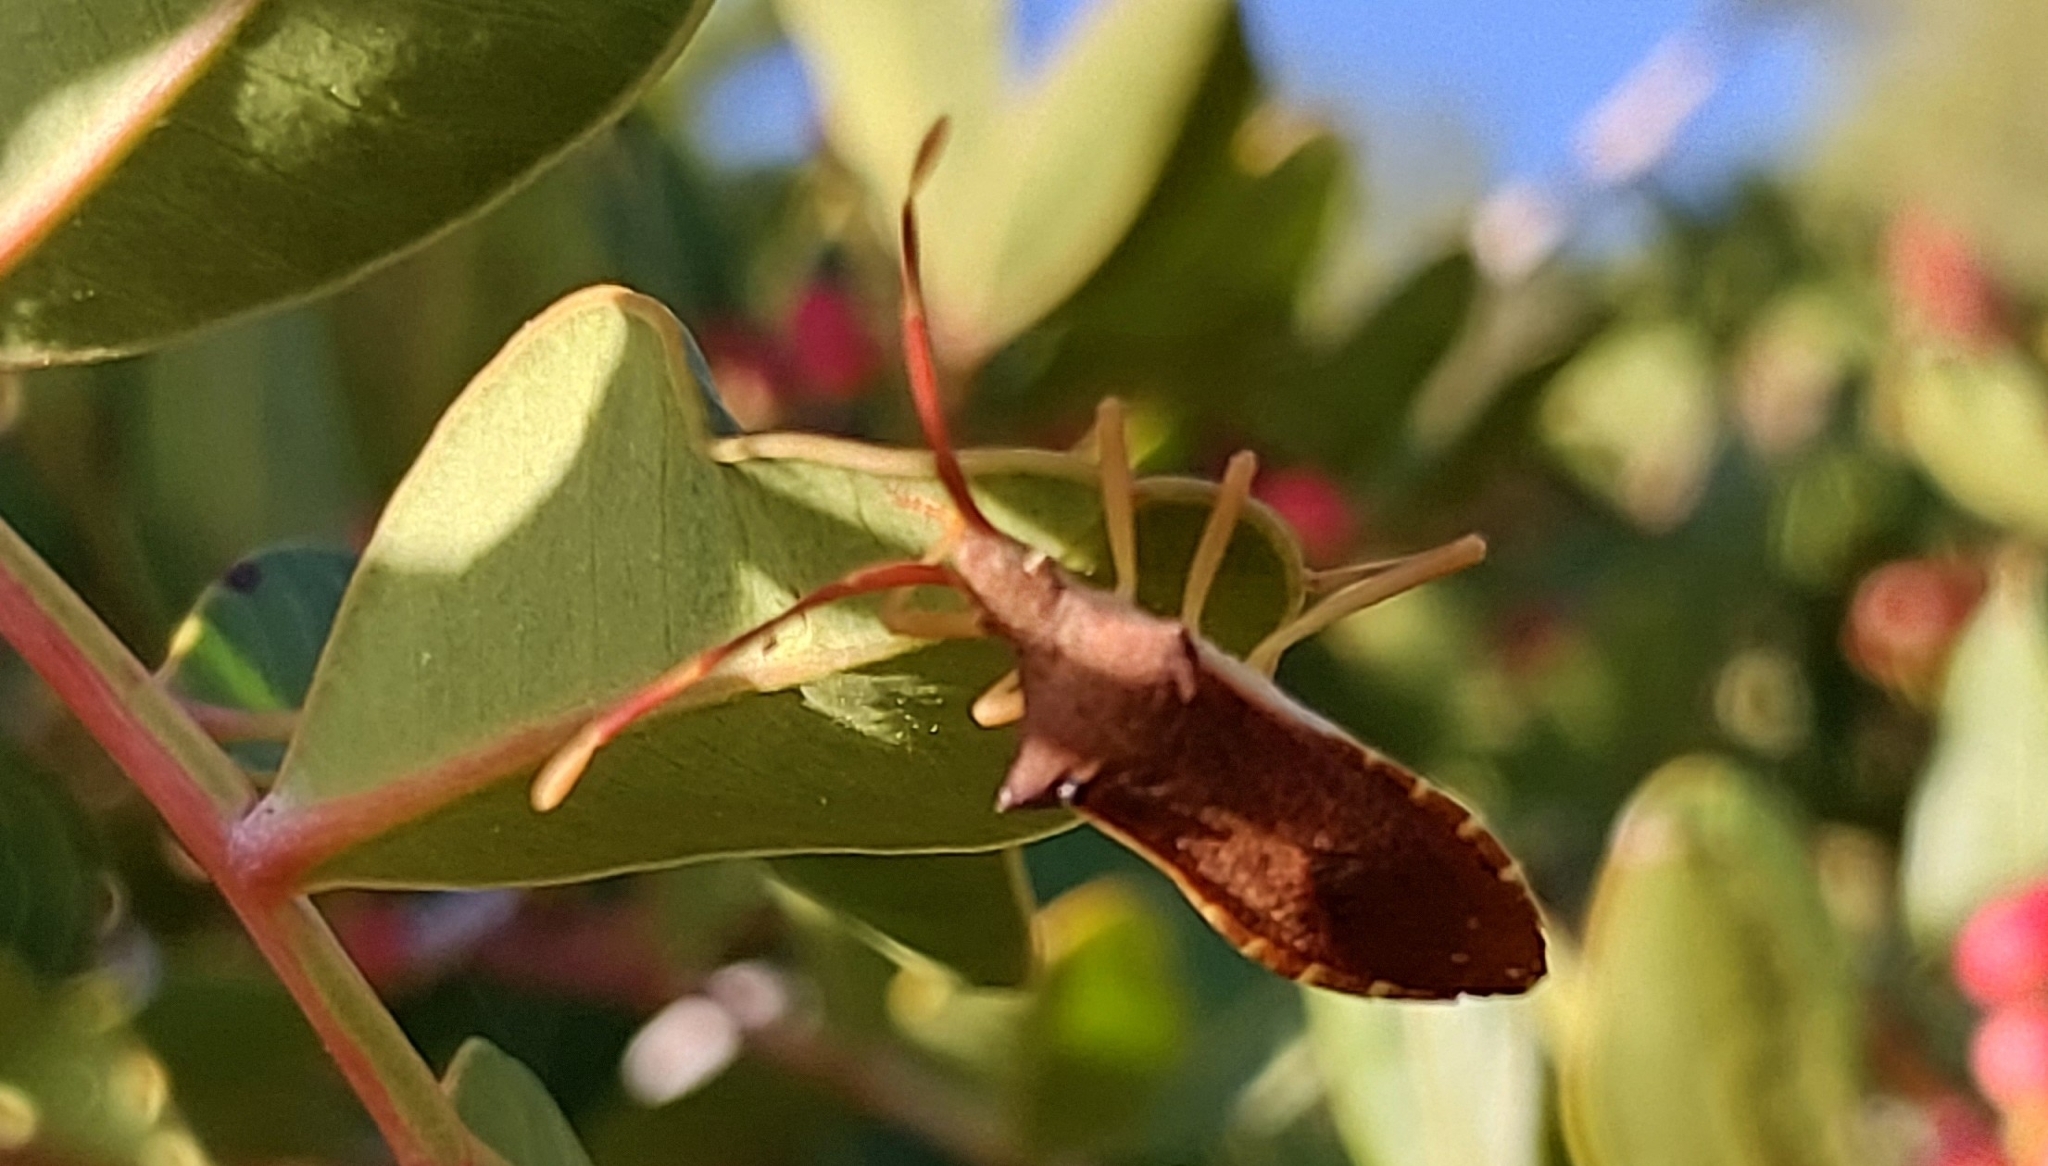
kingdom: Animalia
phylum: Arthropoda
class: Insecta
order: Hemiptera
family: Coreidae
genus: Gonocerus
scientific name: Gonocerus acuteangulatus
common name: Box bug
